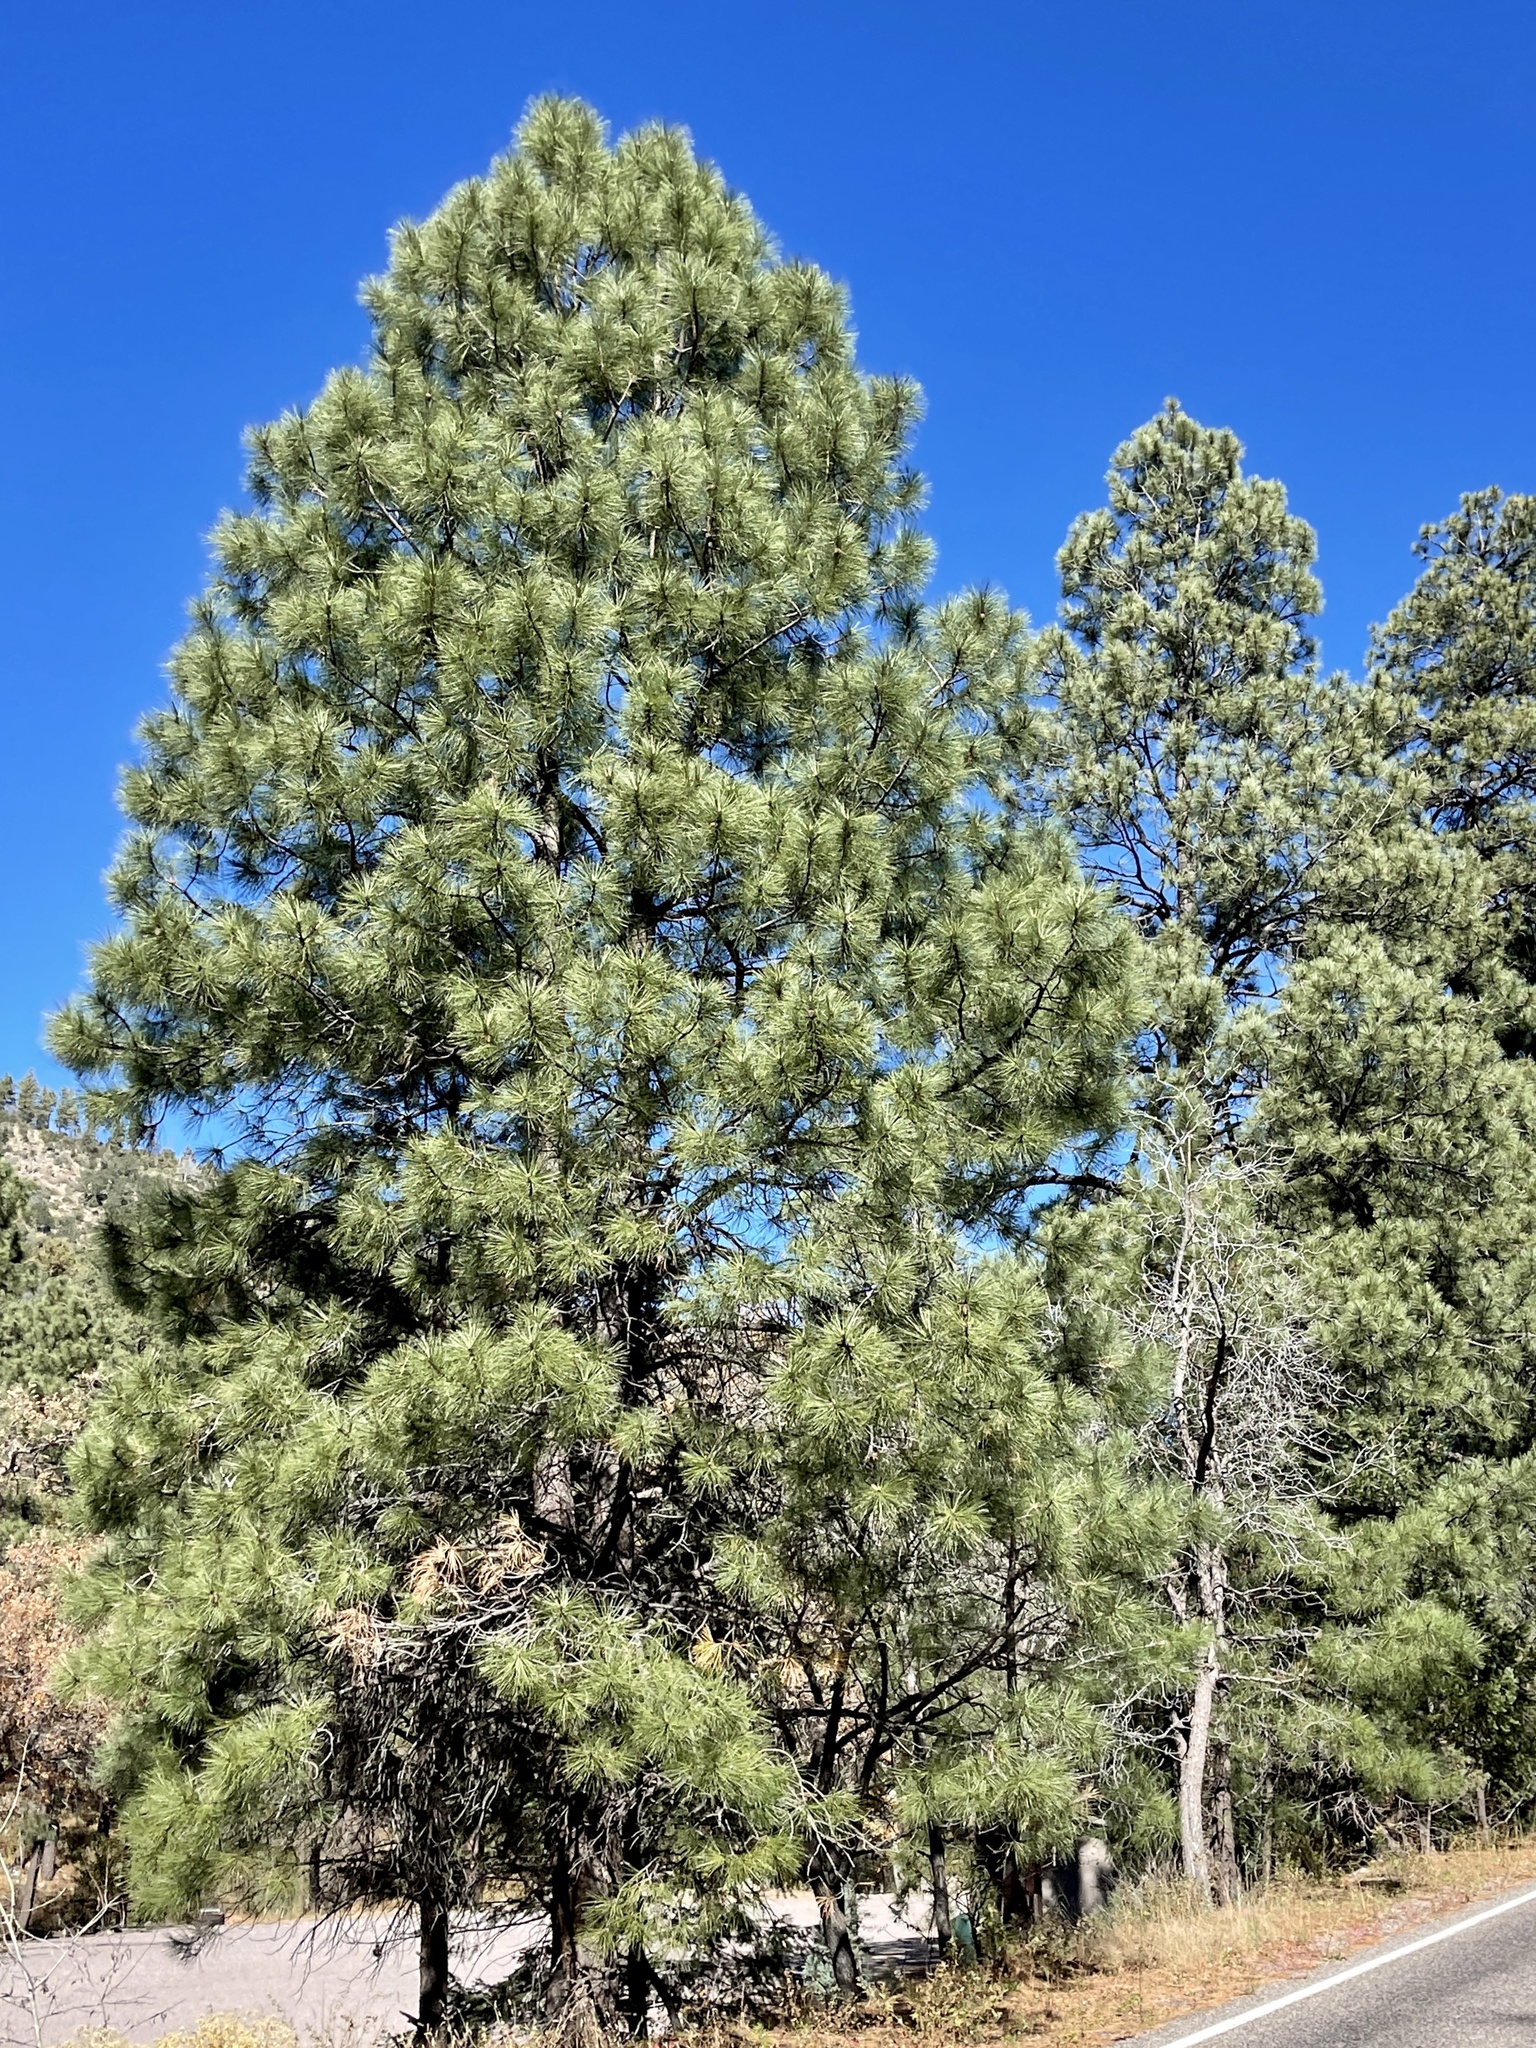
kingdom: Plantae
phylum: Tracheophyta
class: Pinopsida
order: Pinales
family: Pinaceae
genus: Pinus
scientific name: Pinus ponderosa
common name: Western yellow-pine
